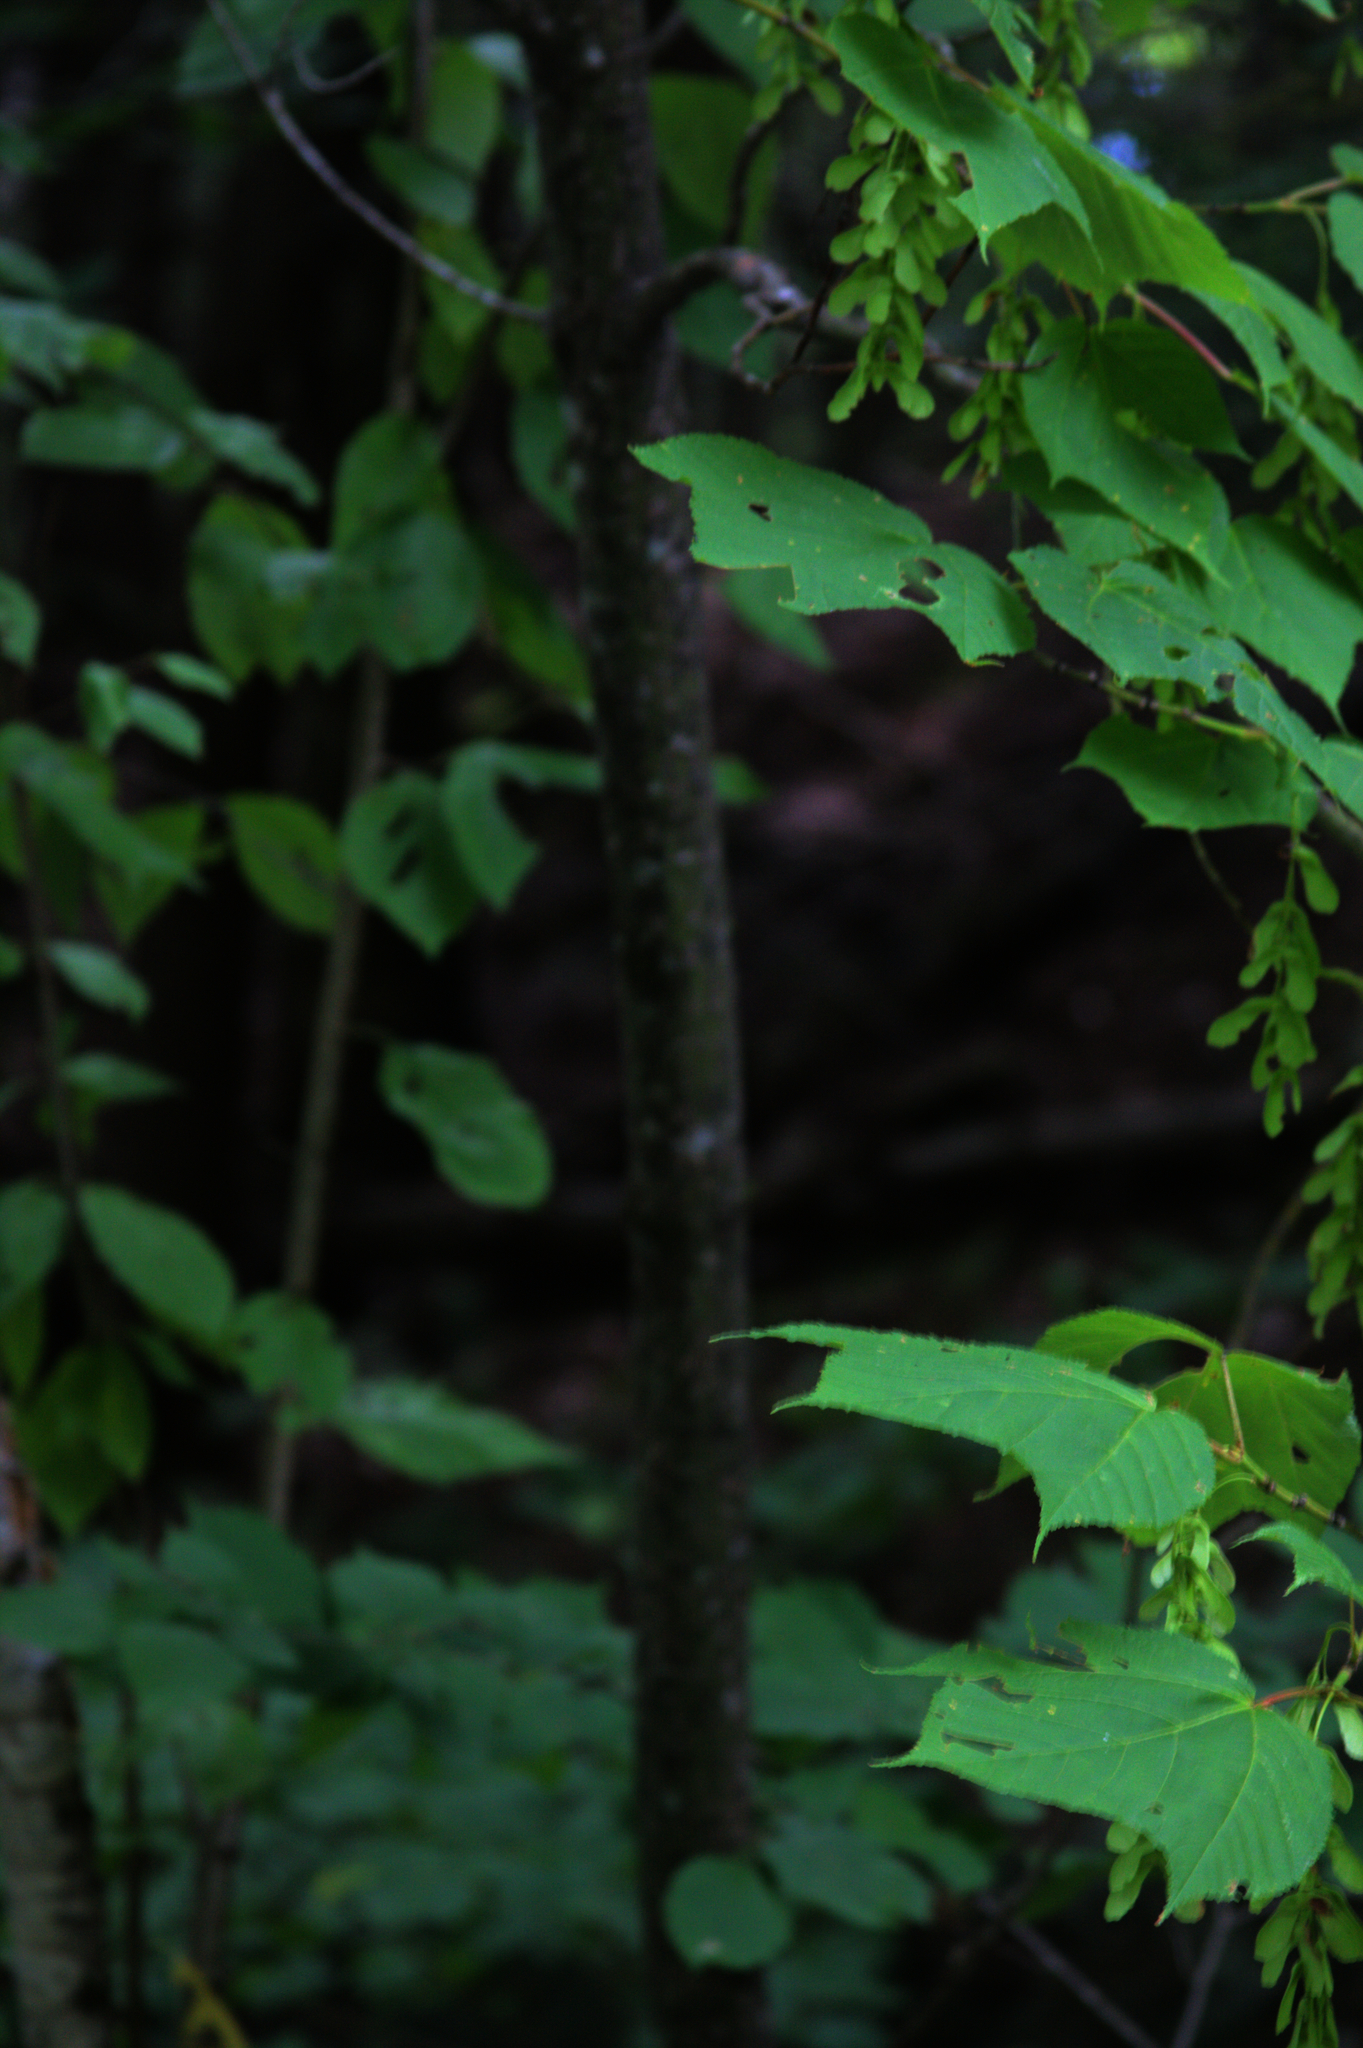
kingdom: Plantae
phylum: Tracheophyta
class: Magnoliopsida
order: Sapindales
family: Sapindaceae
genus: Acer
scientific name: Acer pensylvanicum
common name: Moosewood
